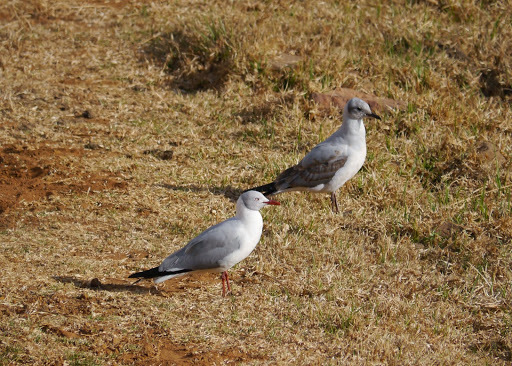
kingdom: Animalia
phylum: Chordata
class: Aves
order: Charadriiformes
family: Laridae
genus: Chroicocephalus
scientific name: Chroicocephalus cirrocephalus
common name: Grey-headed gull
